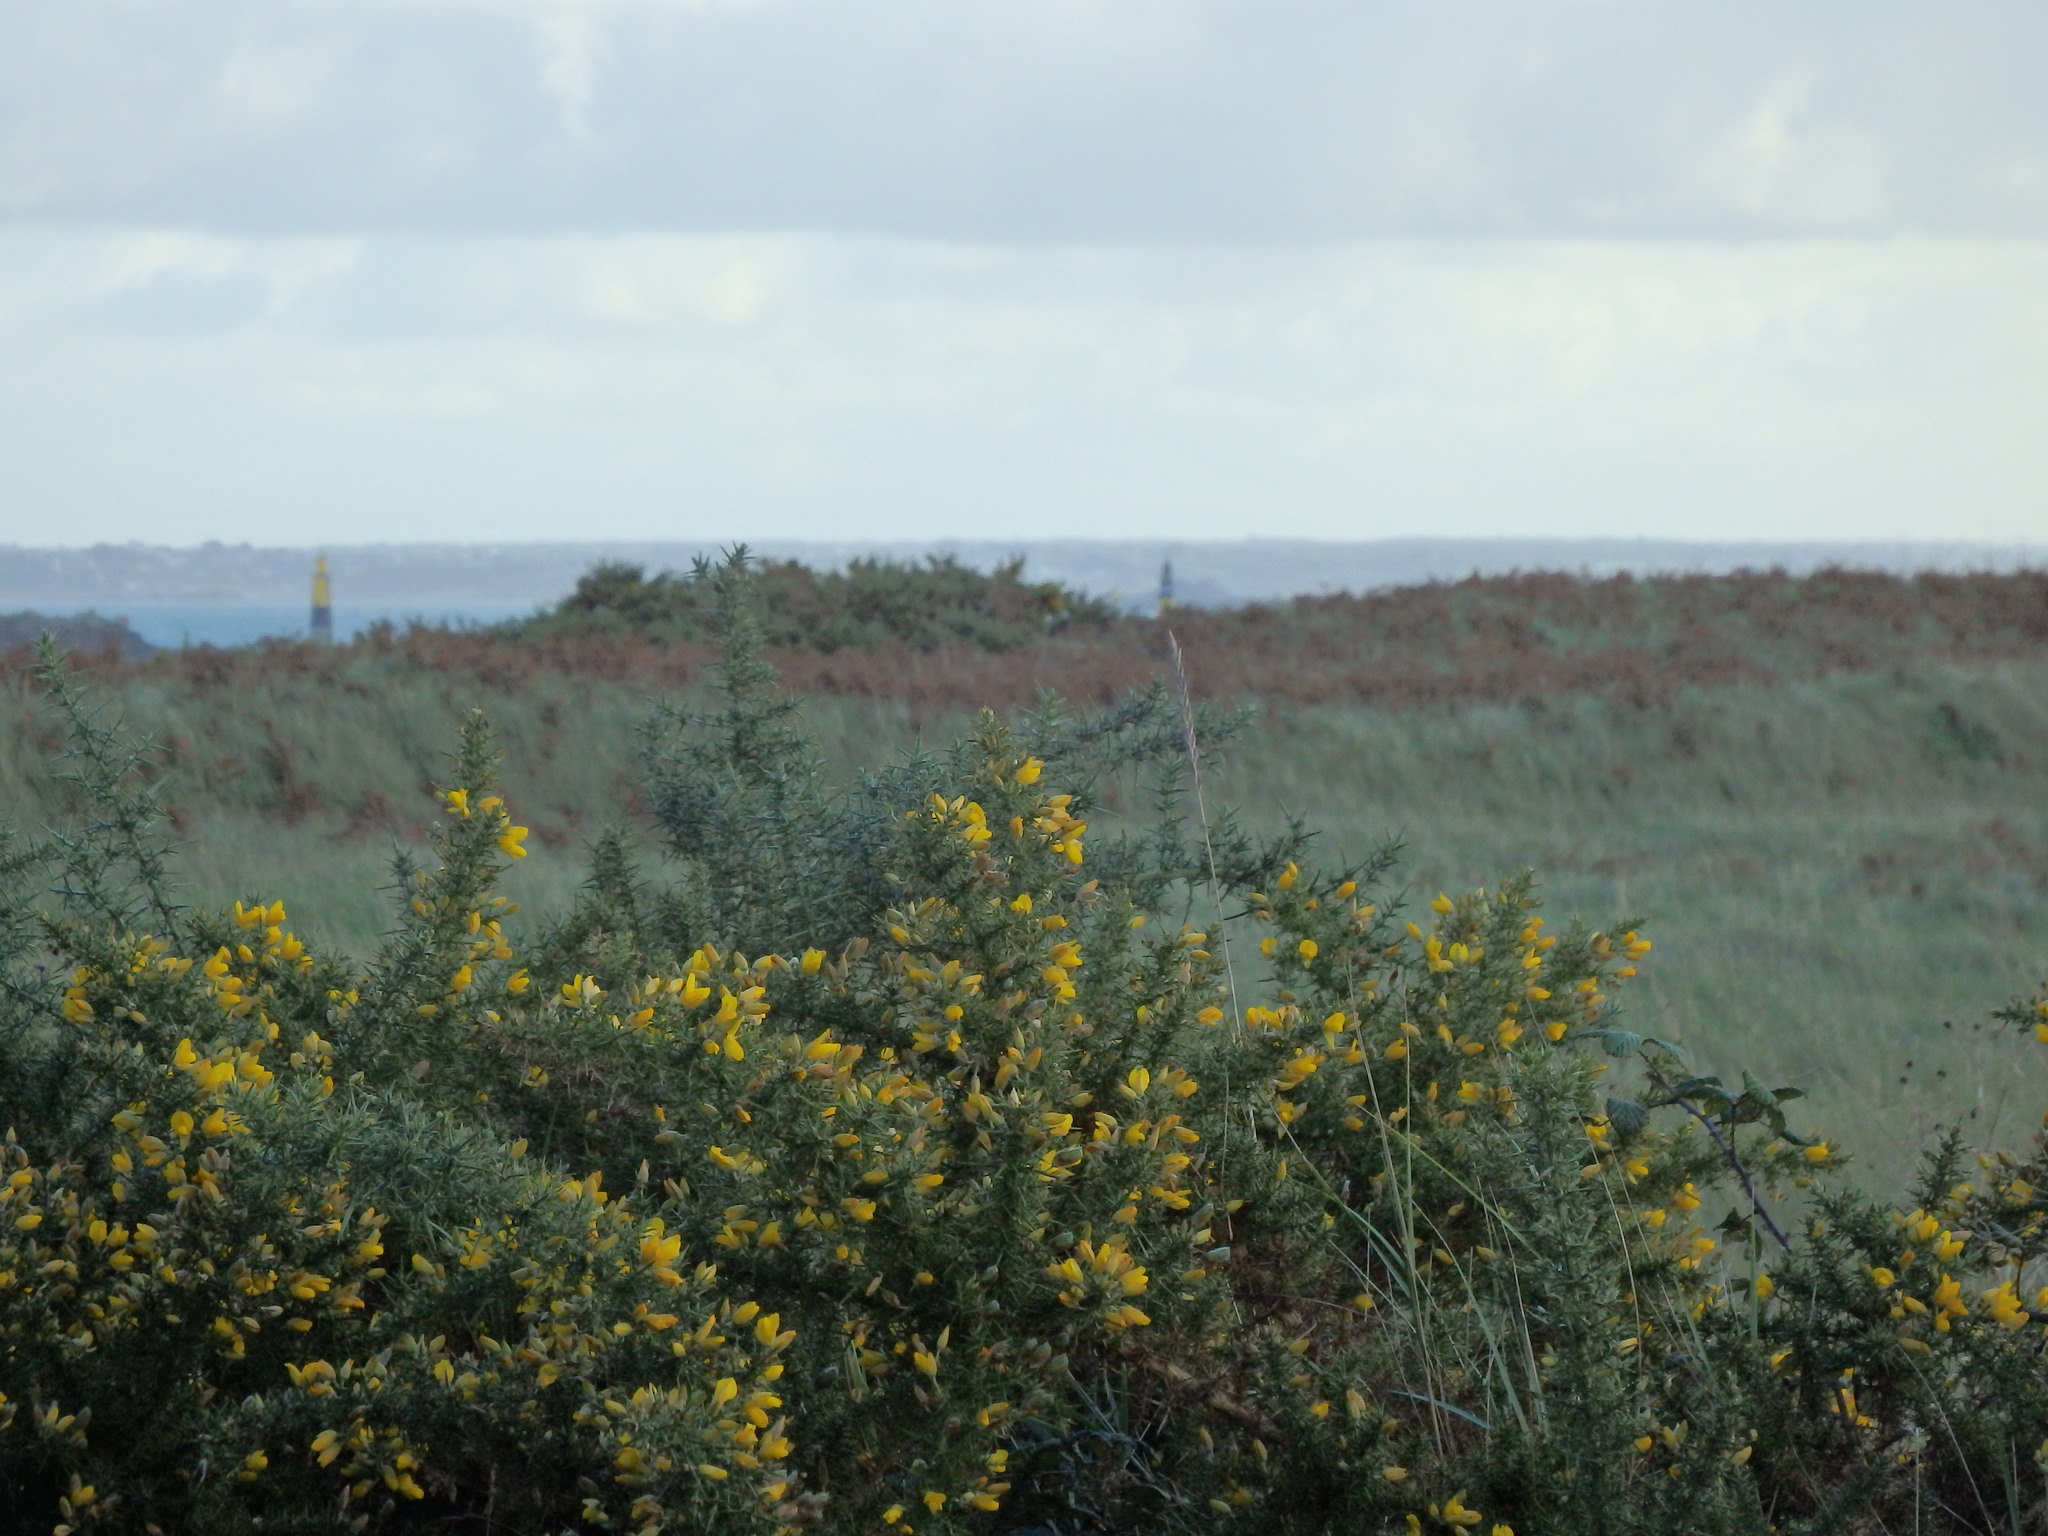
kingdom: Plantae
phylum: Tracheophyta
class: Magnoliopsida
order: Fabales
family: Fabaceae
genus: Ulex
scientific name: Ulex europaeus
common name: Common gorse
